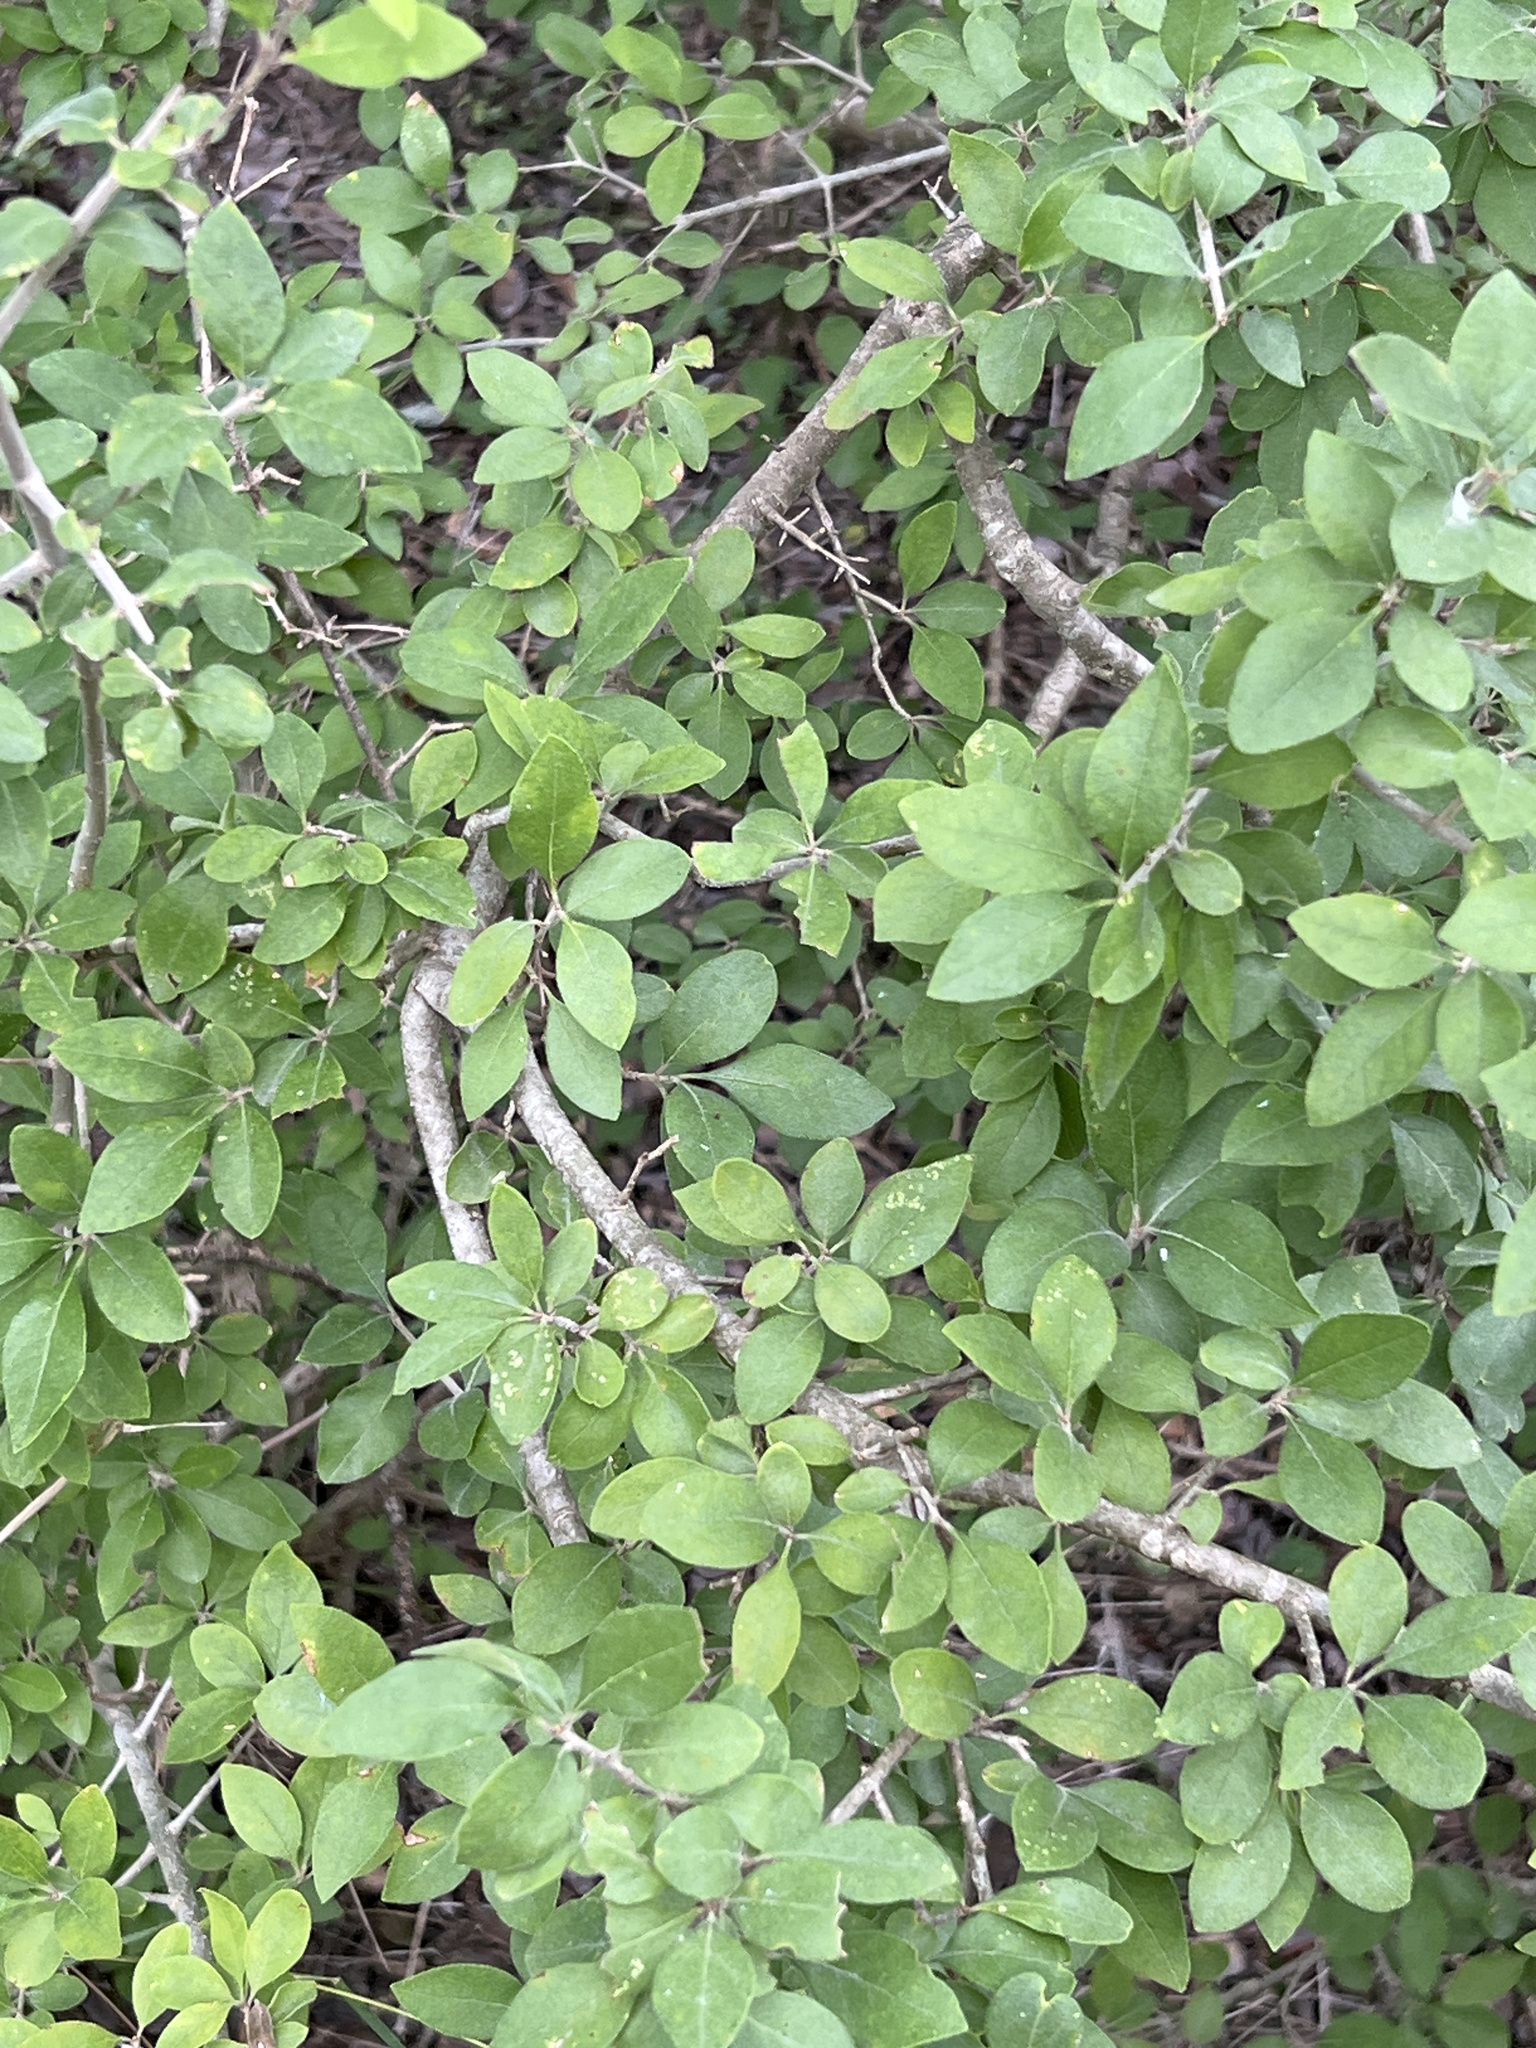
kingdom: Plantae
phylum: Tracheophyta
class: Magnoliopsida
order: Lamiales
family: Oleaceae
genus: Forestiera
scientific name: Forestiera pubescens
